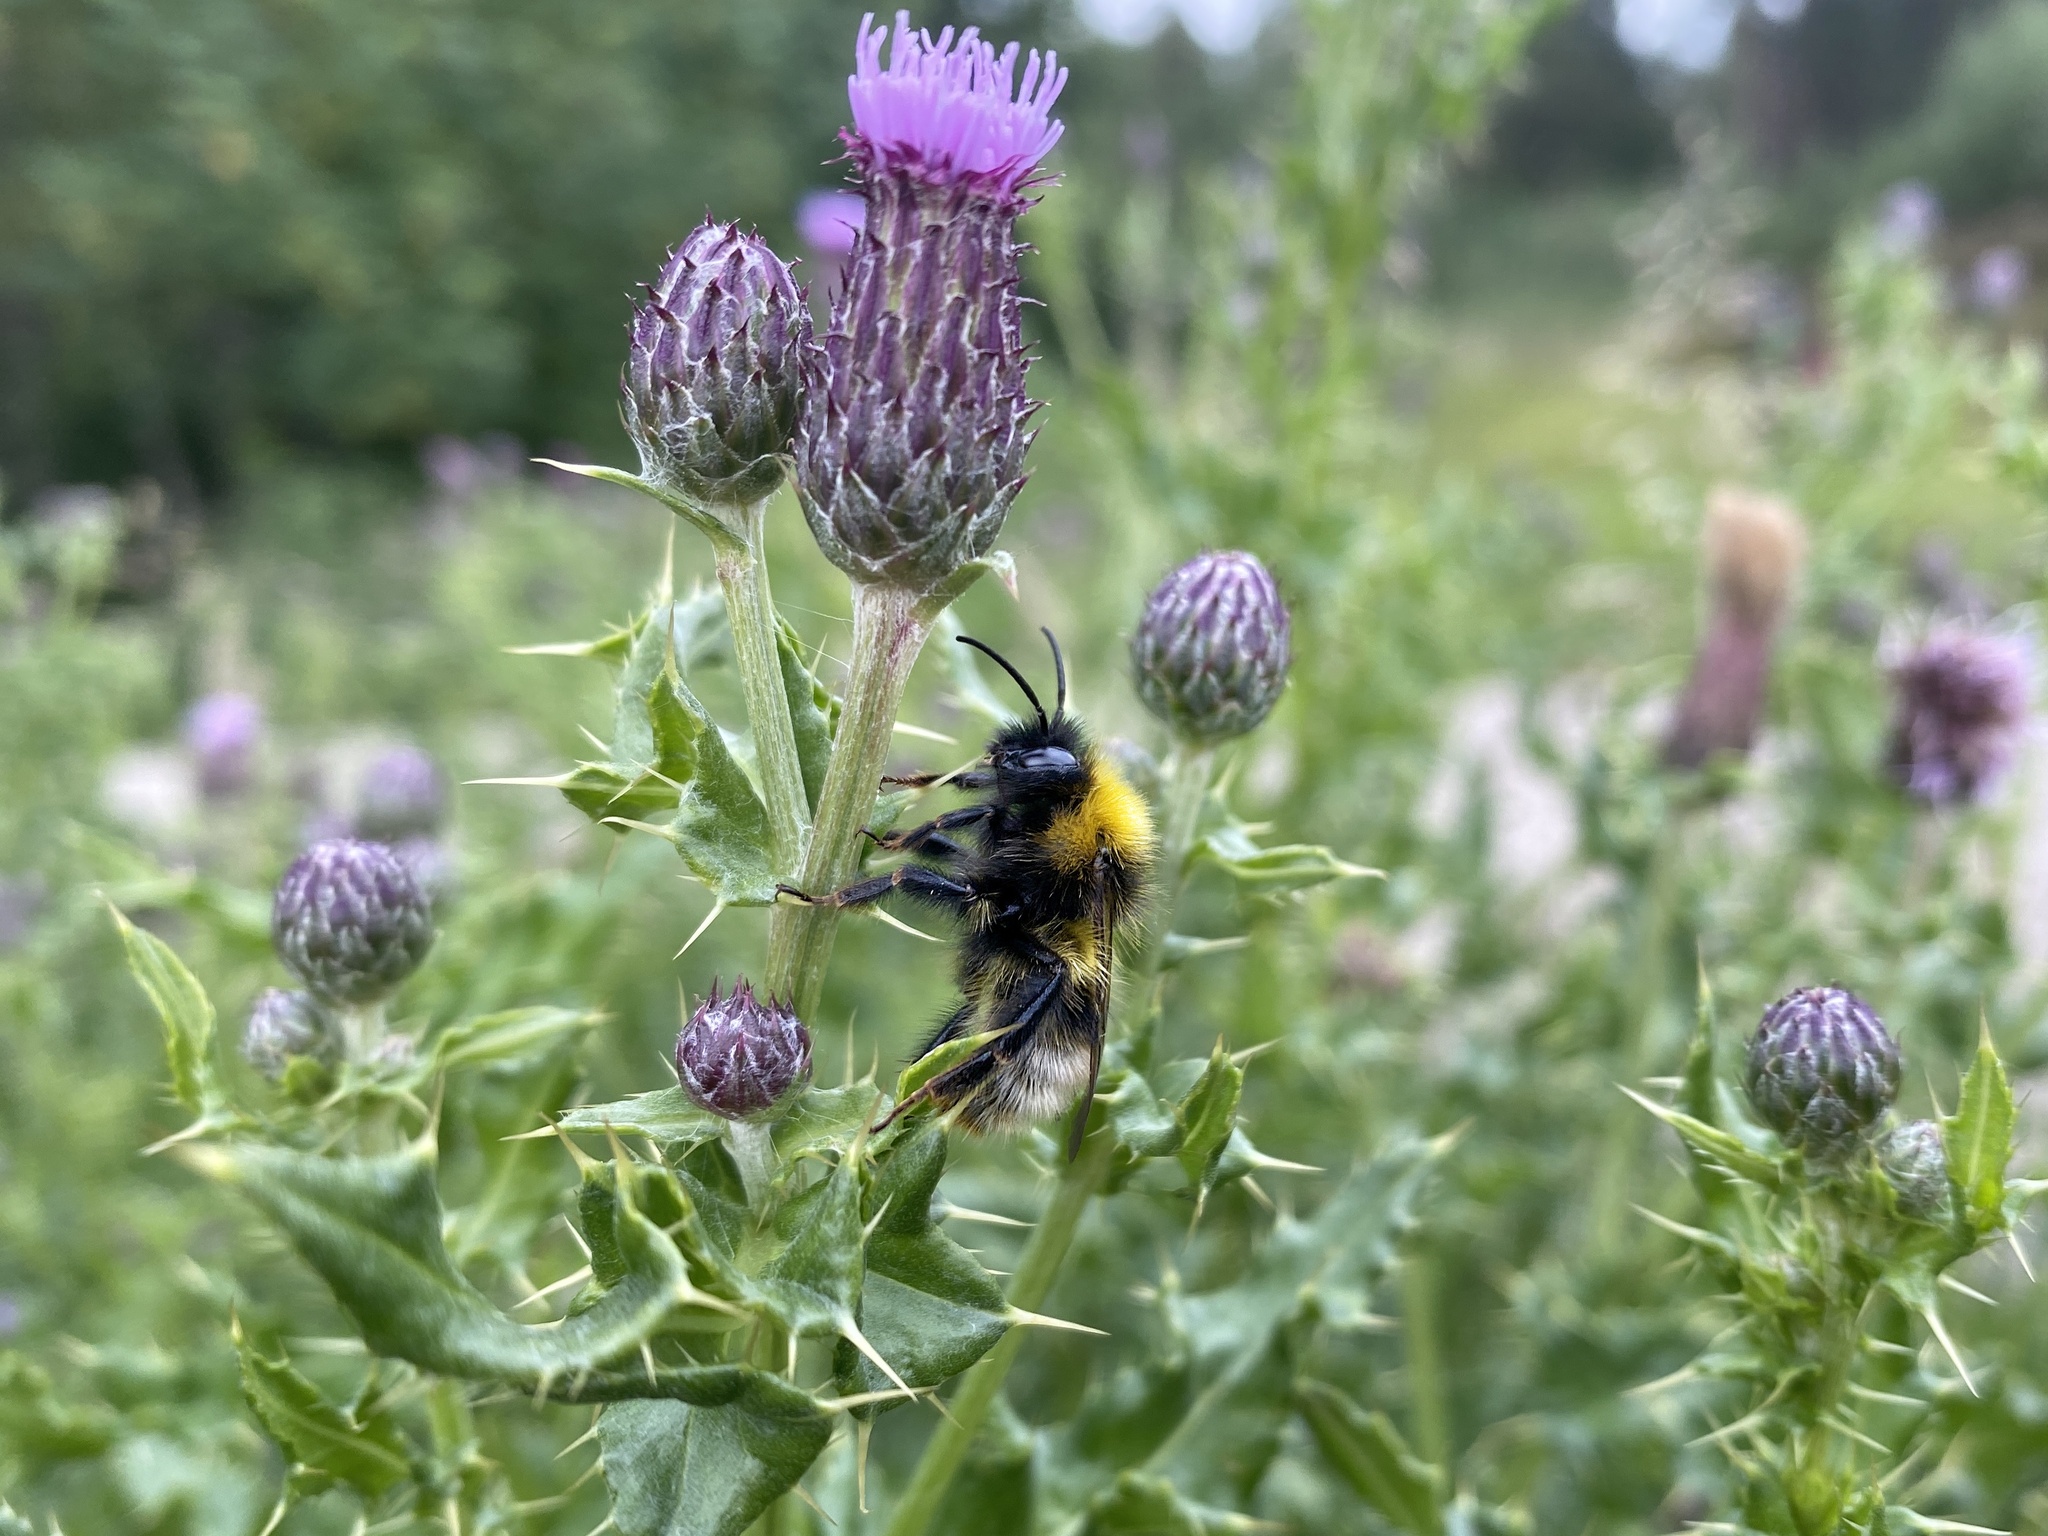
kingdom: Animalia
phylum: Arthropoda
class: Insecta
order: Hymenoptera
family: Apidae
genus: Bombus
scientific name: Bombus sylvestris
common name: Forest cuckoo bee
